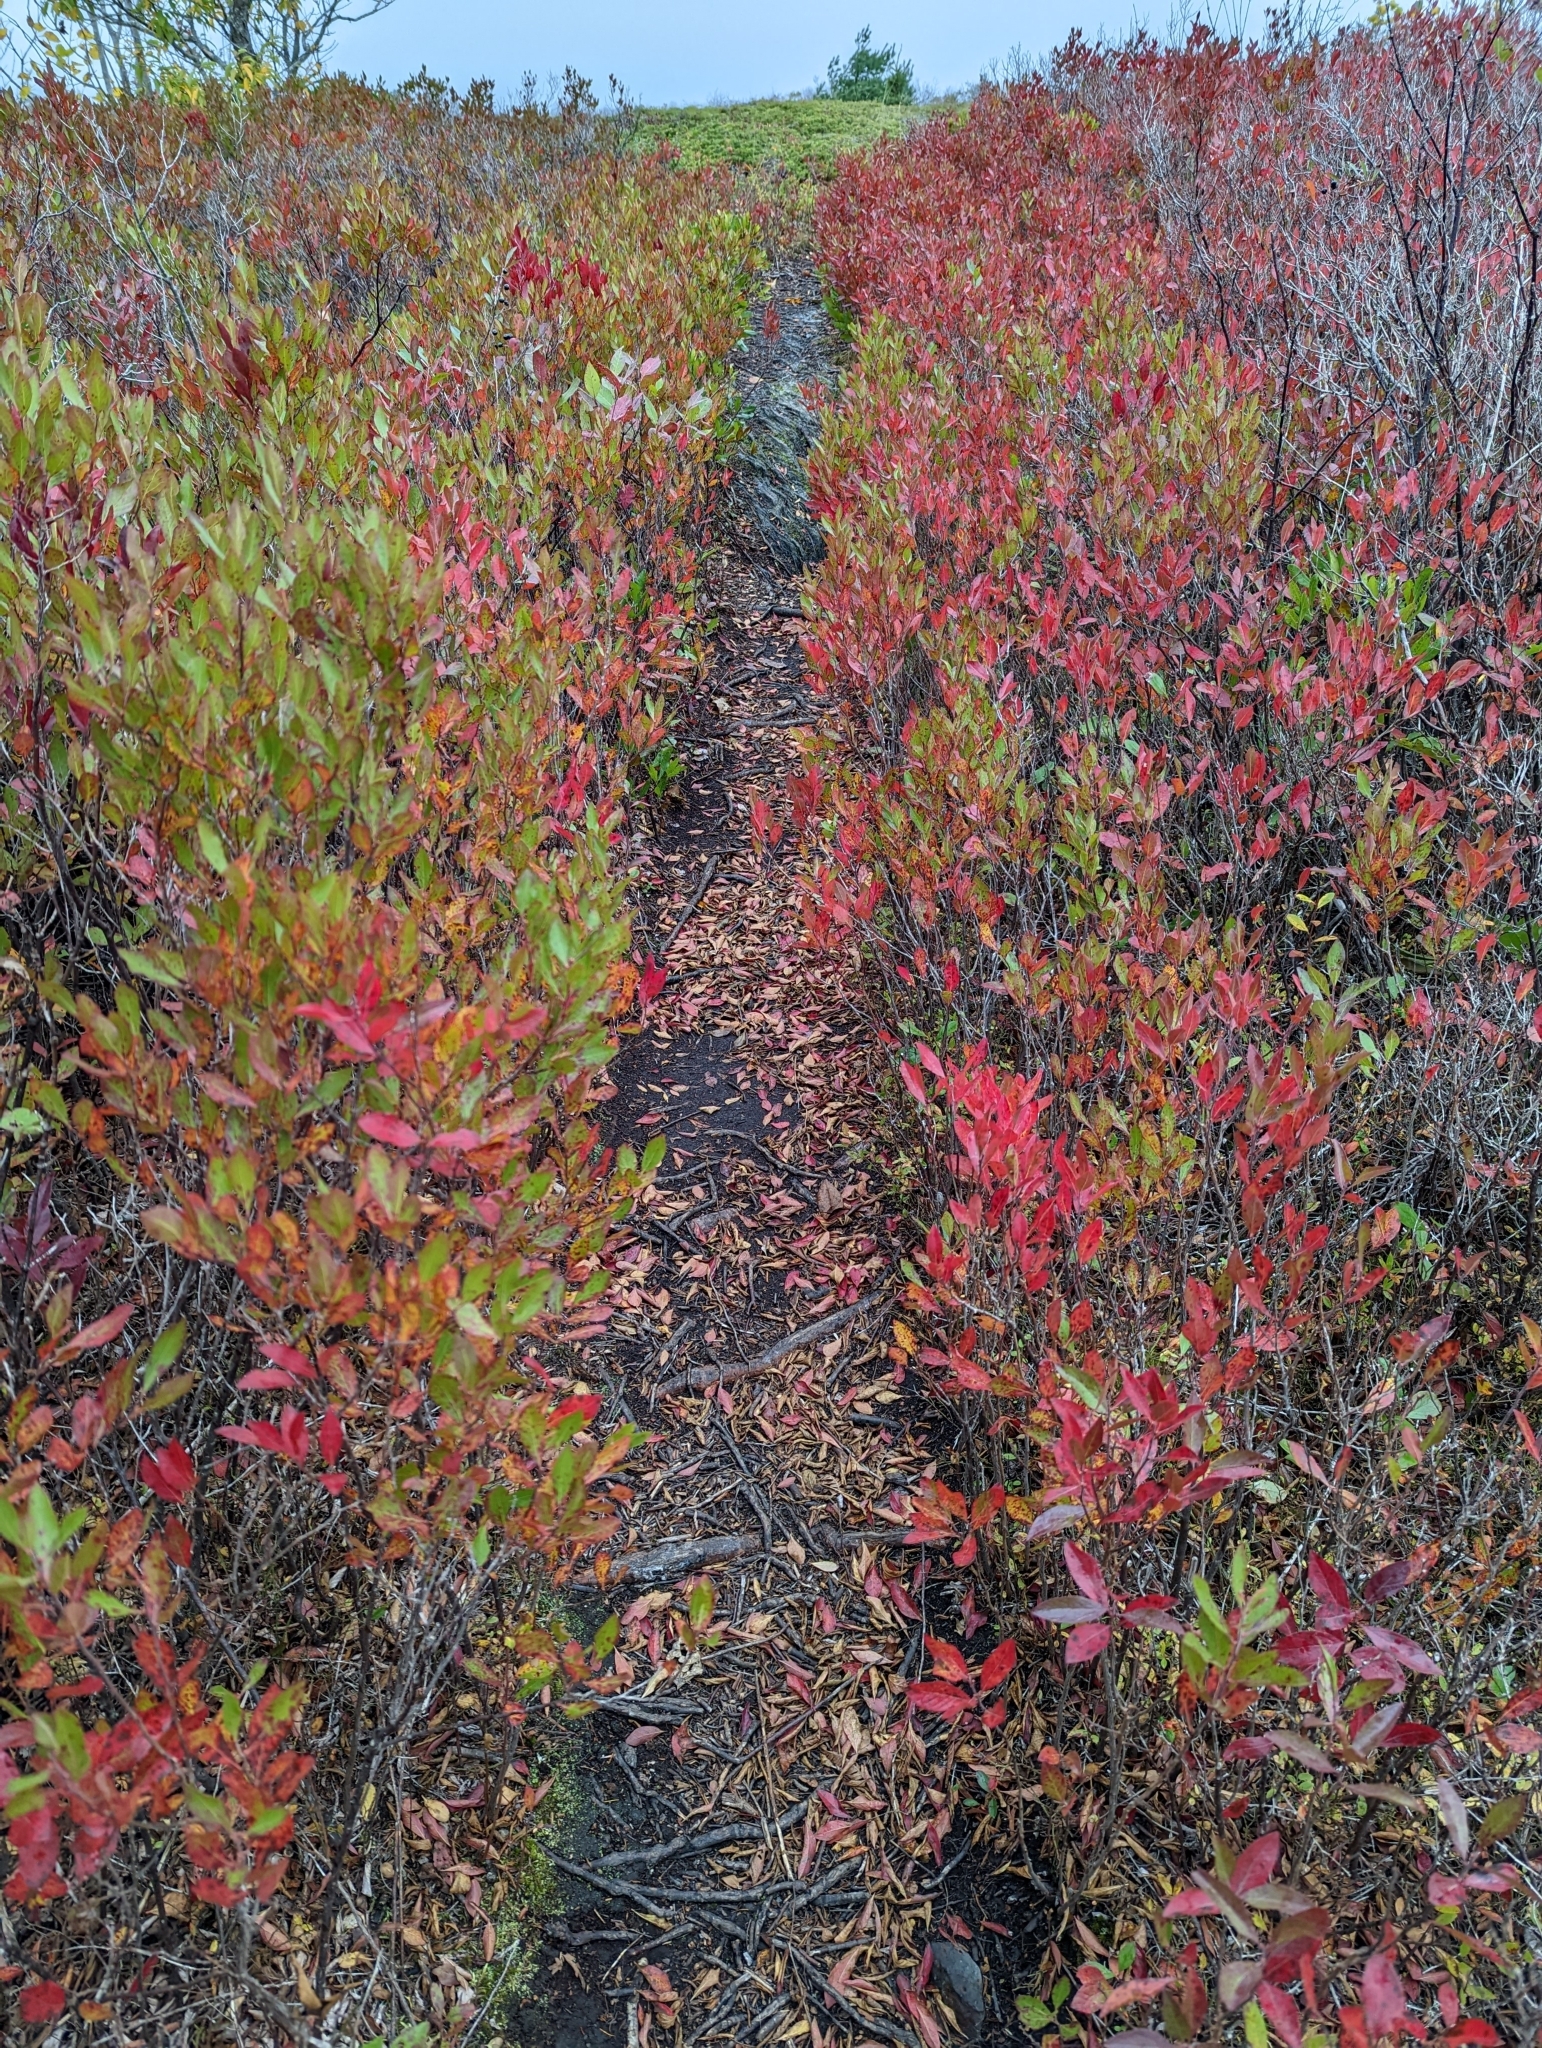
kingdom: Plantae
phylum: Tracheophyta
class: Magnoliopsida
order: Ericales
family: Ericaceae
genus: Gaylussacia
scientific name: Gaylussacia baccata
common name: Black huckleberry
